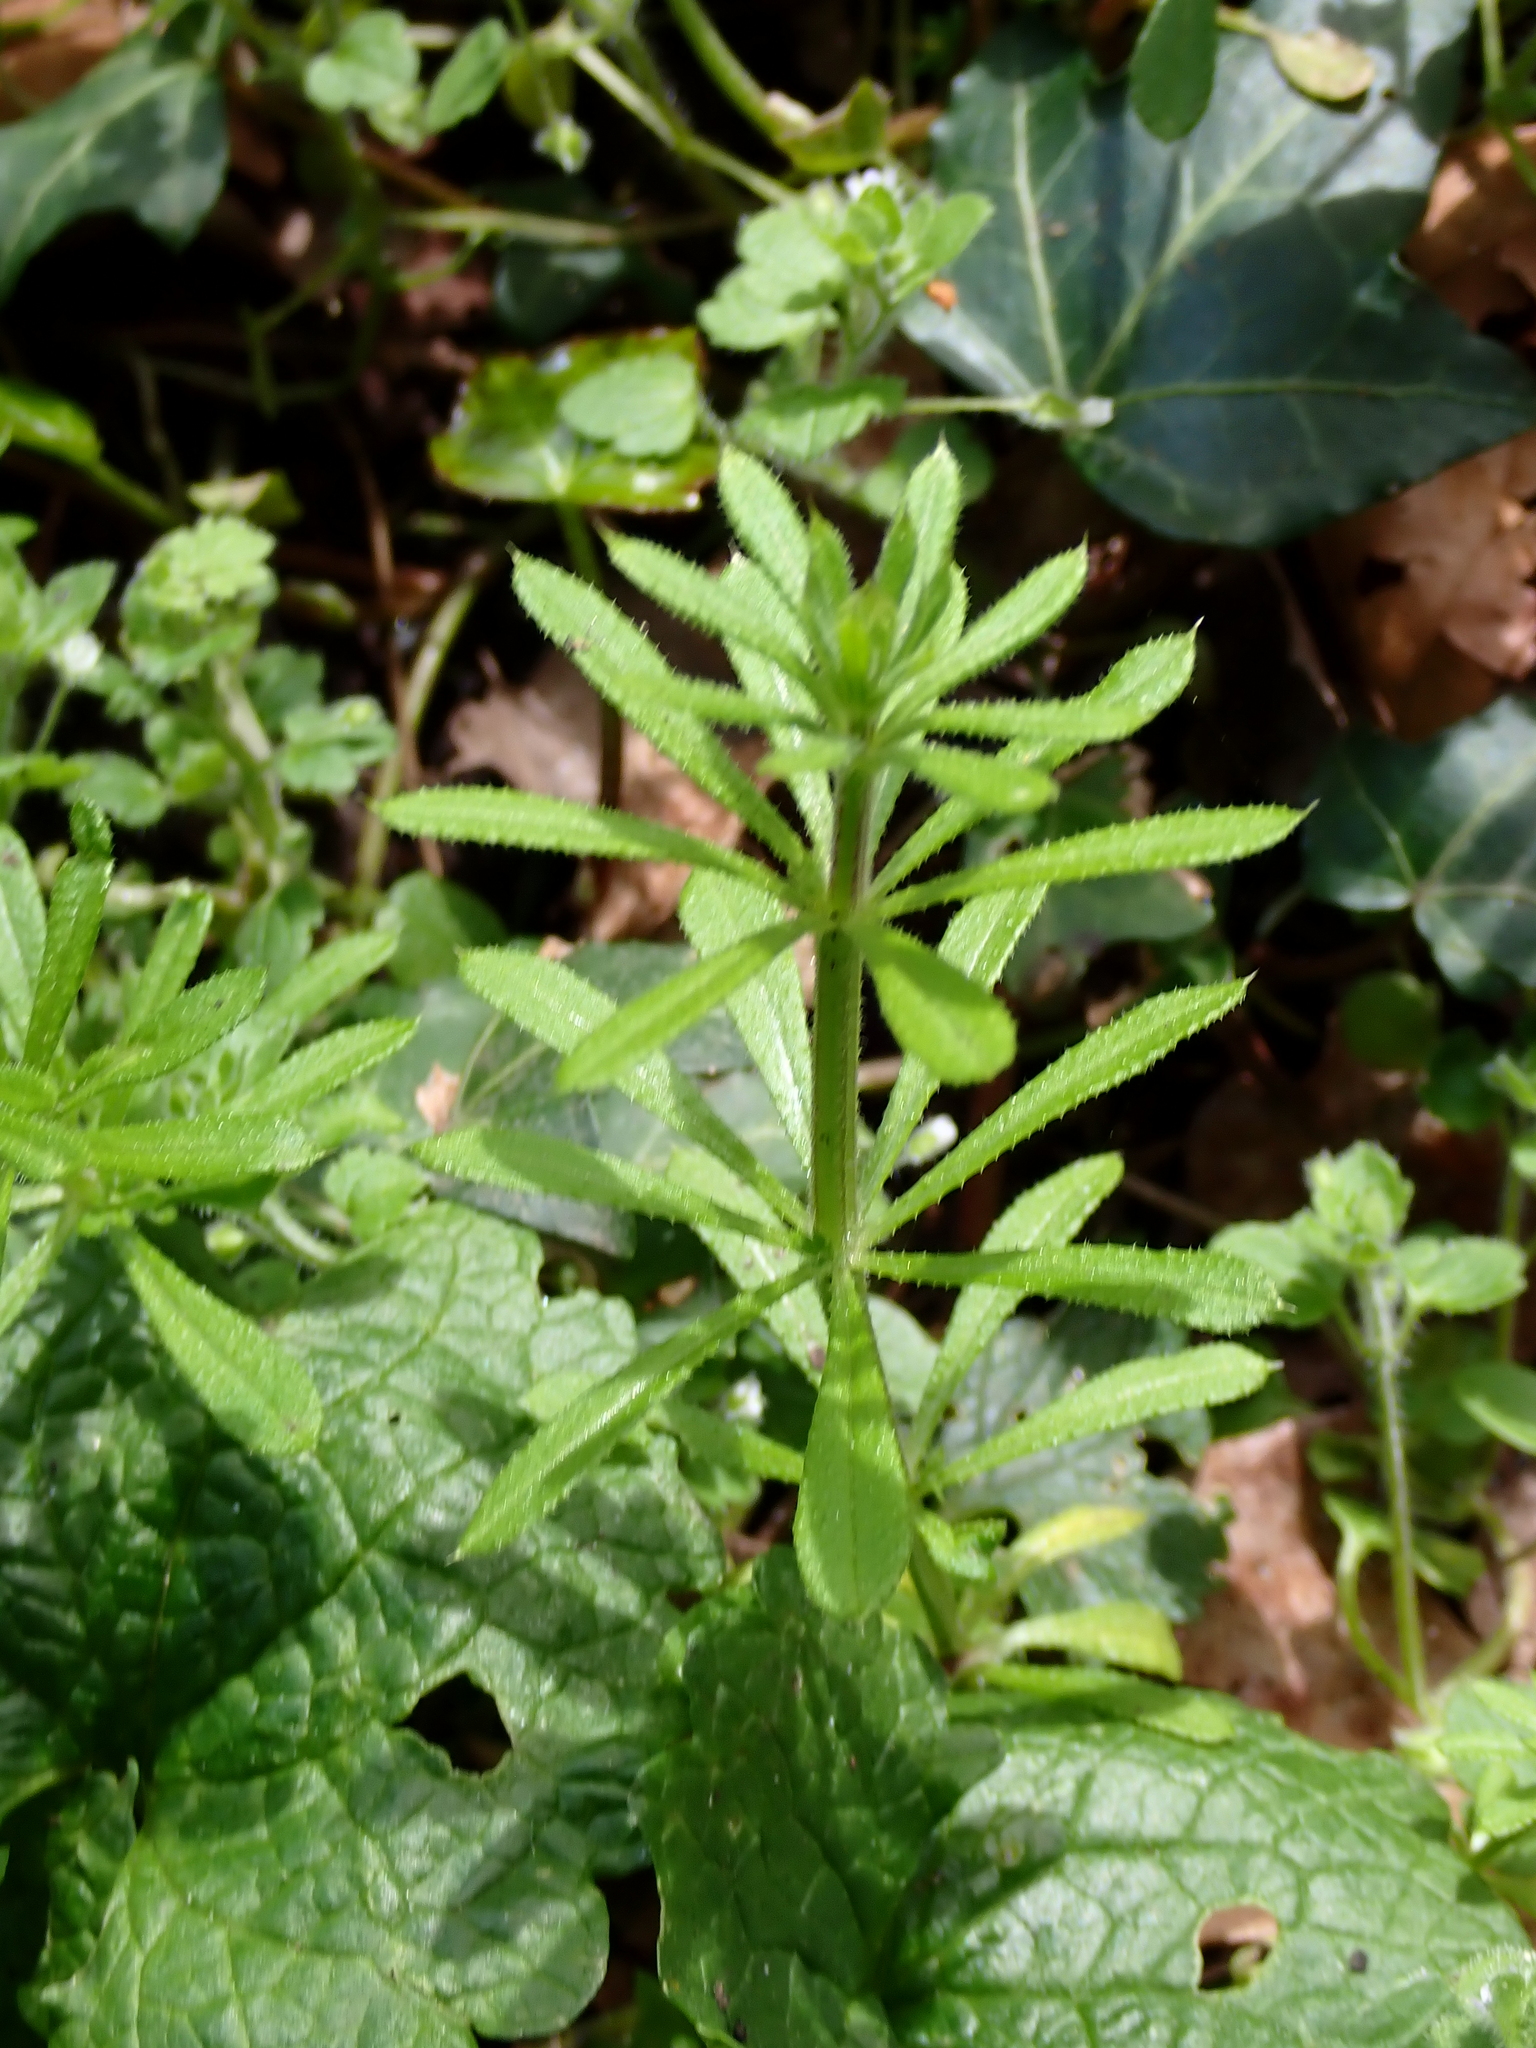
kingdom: Plantae
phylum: Tracheophyta
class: Magnoliopsida
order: Gentianales
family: Rubiaceae
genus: Galium
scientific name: Galium aparine
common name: Cleavers
